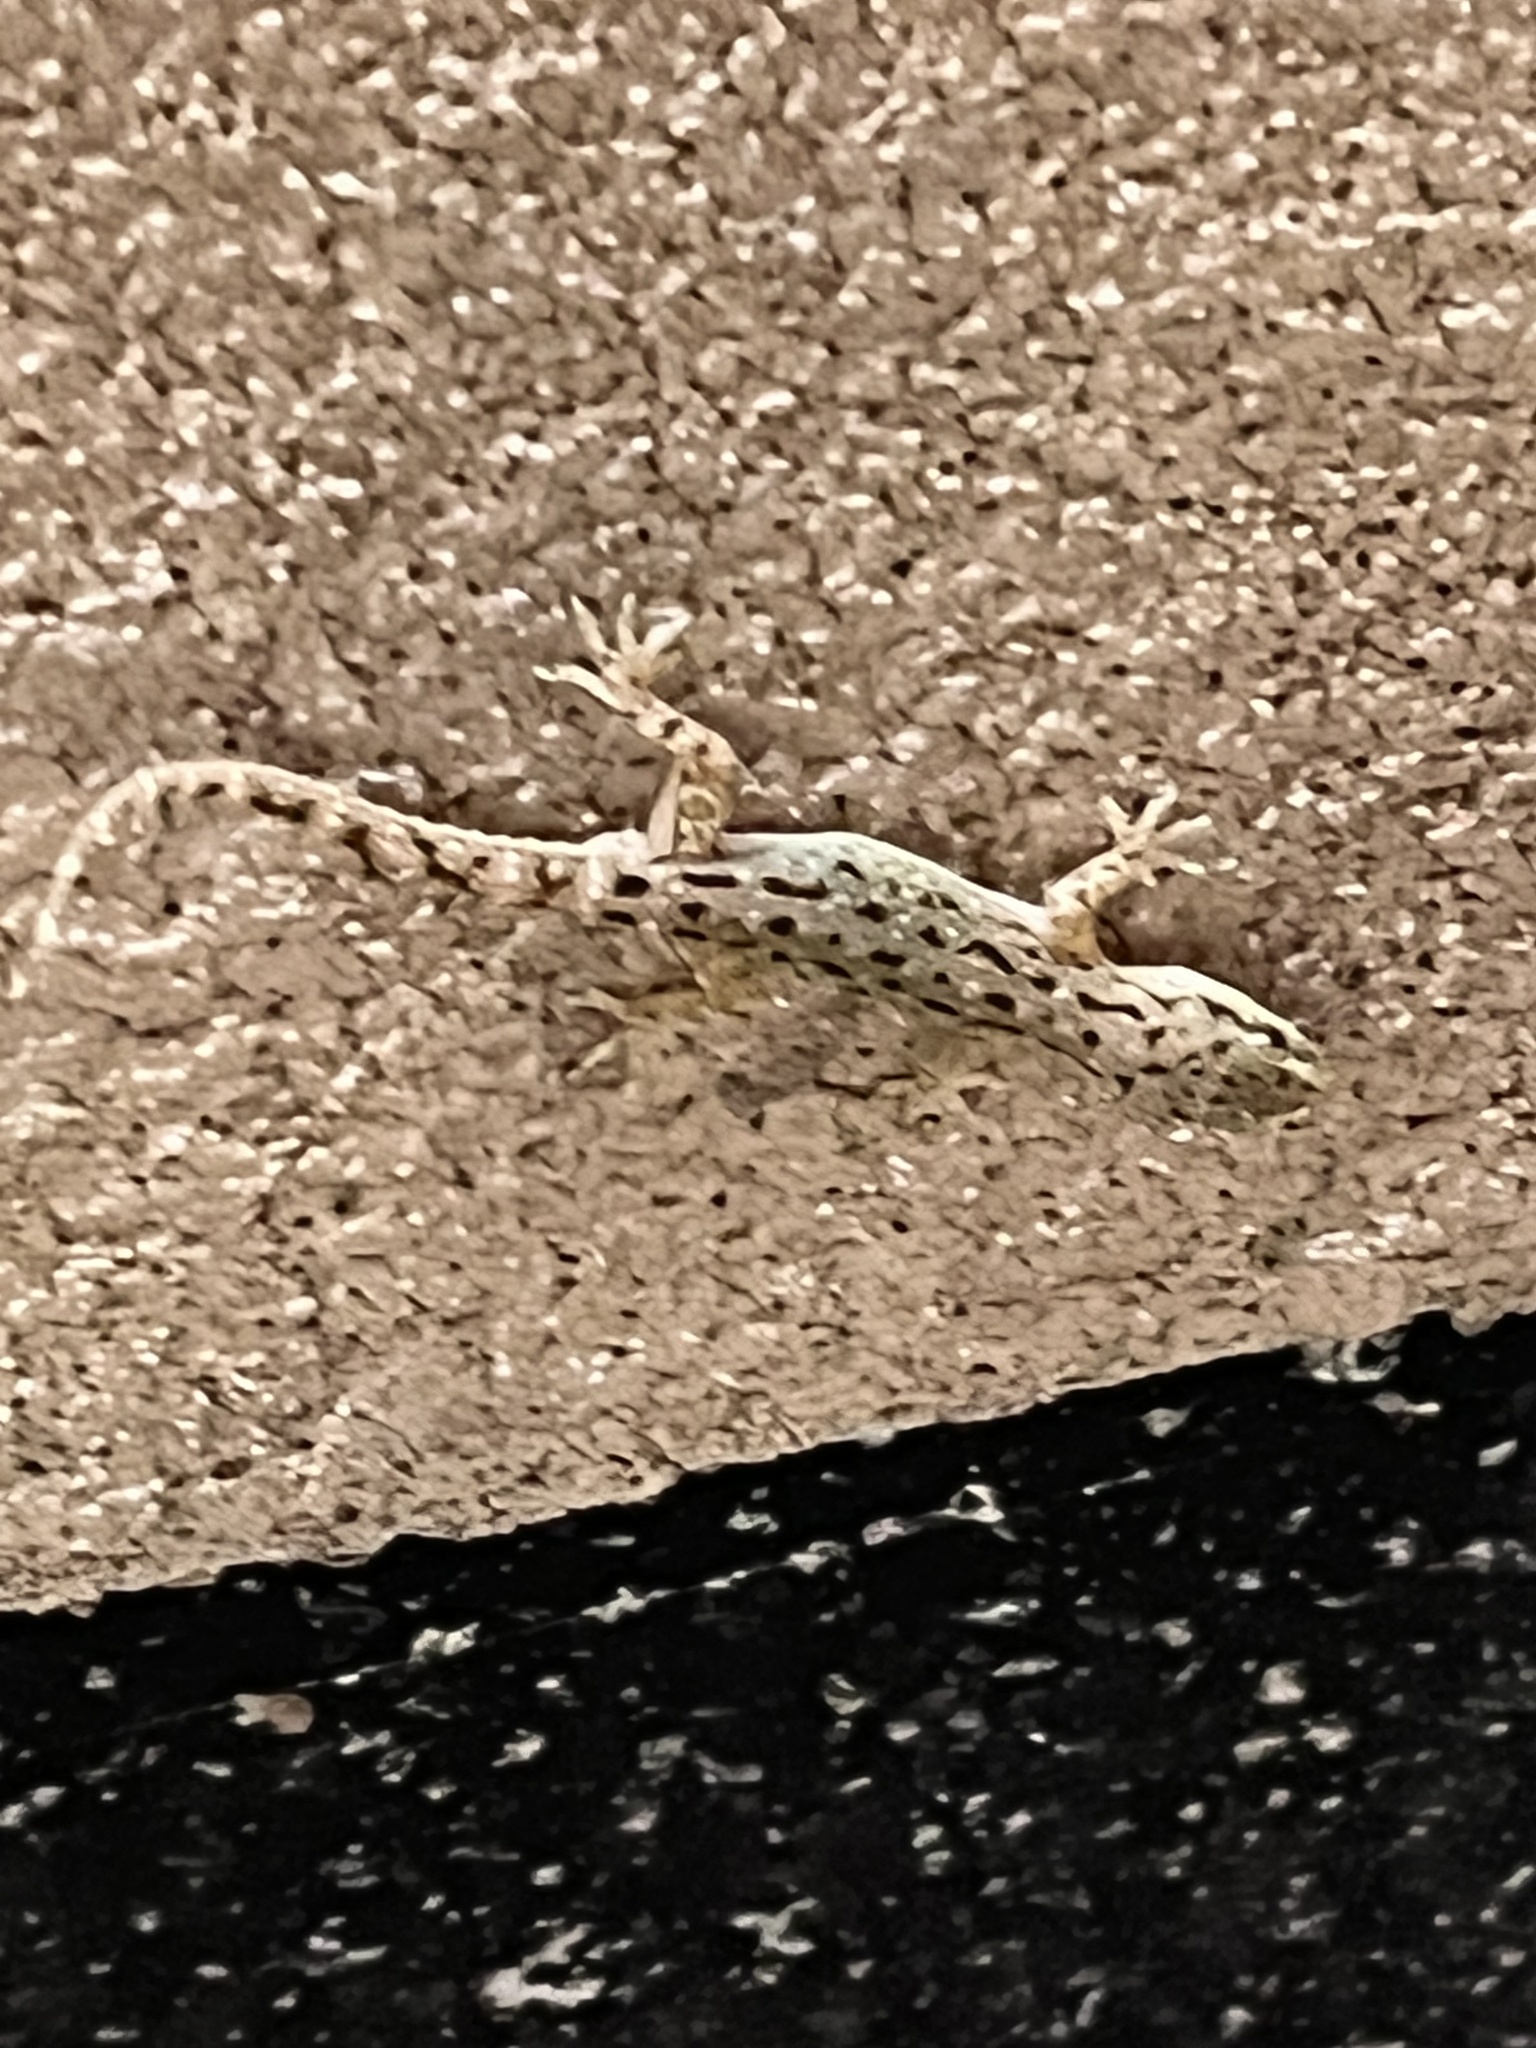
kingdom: Animalia
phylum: Chordata
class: Squamata
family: Gekkonidae
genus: Hemidactylus
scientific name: Hemidactylus parvimaculatus
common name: Spotted house gecko
